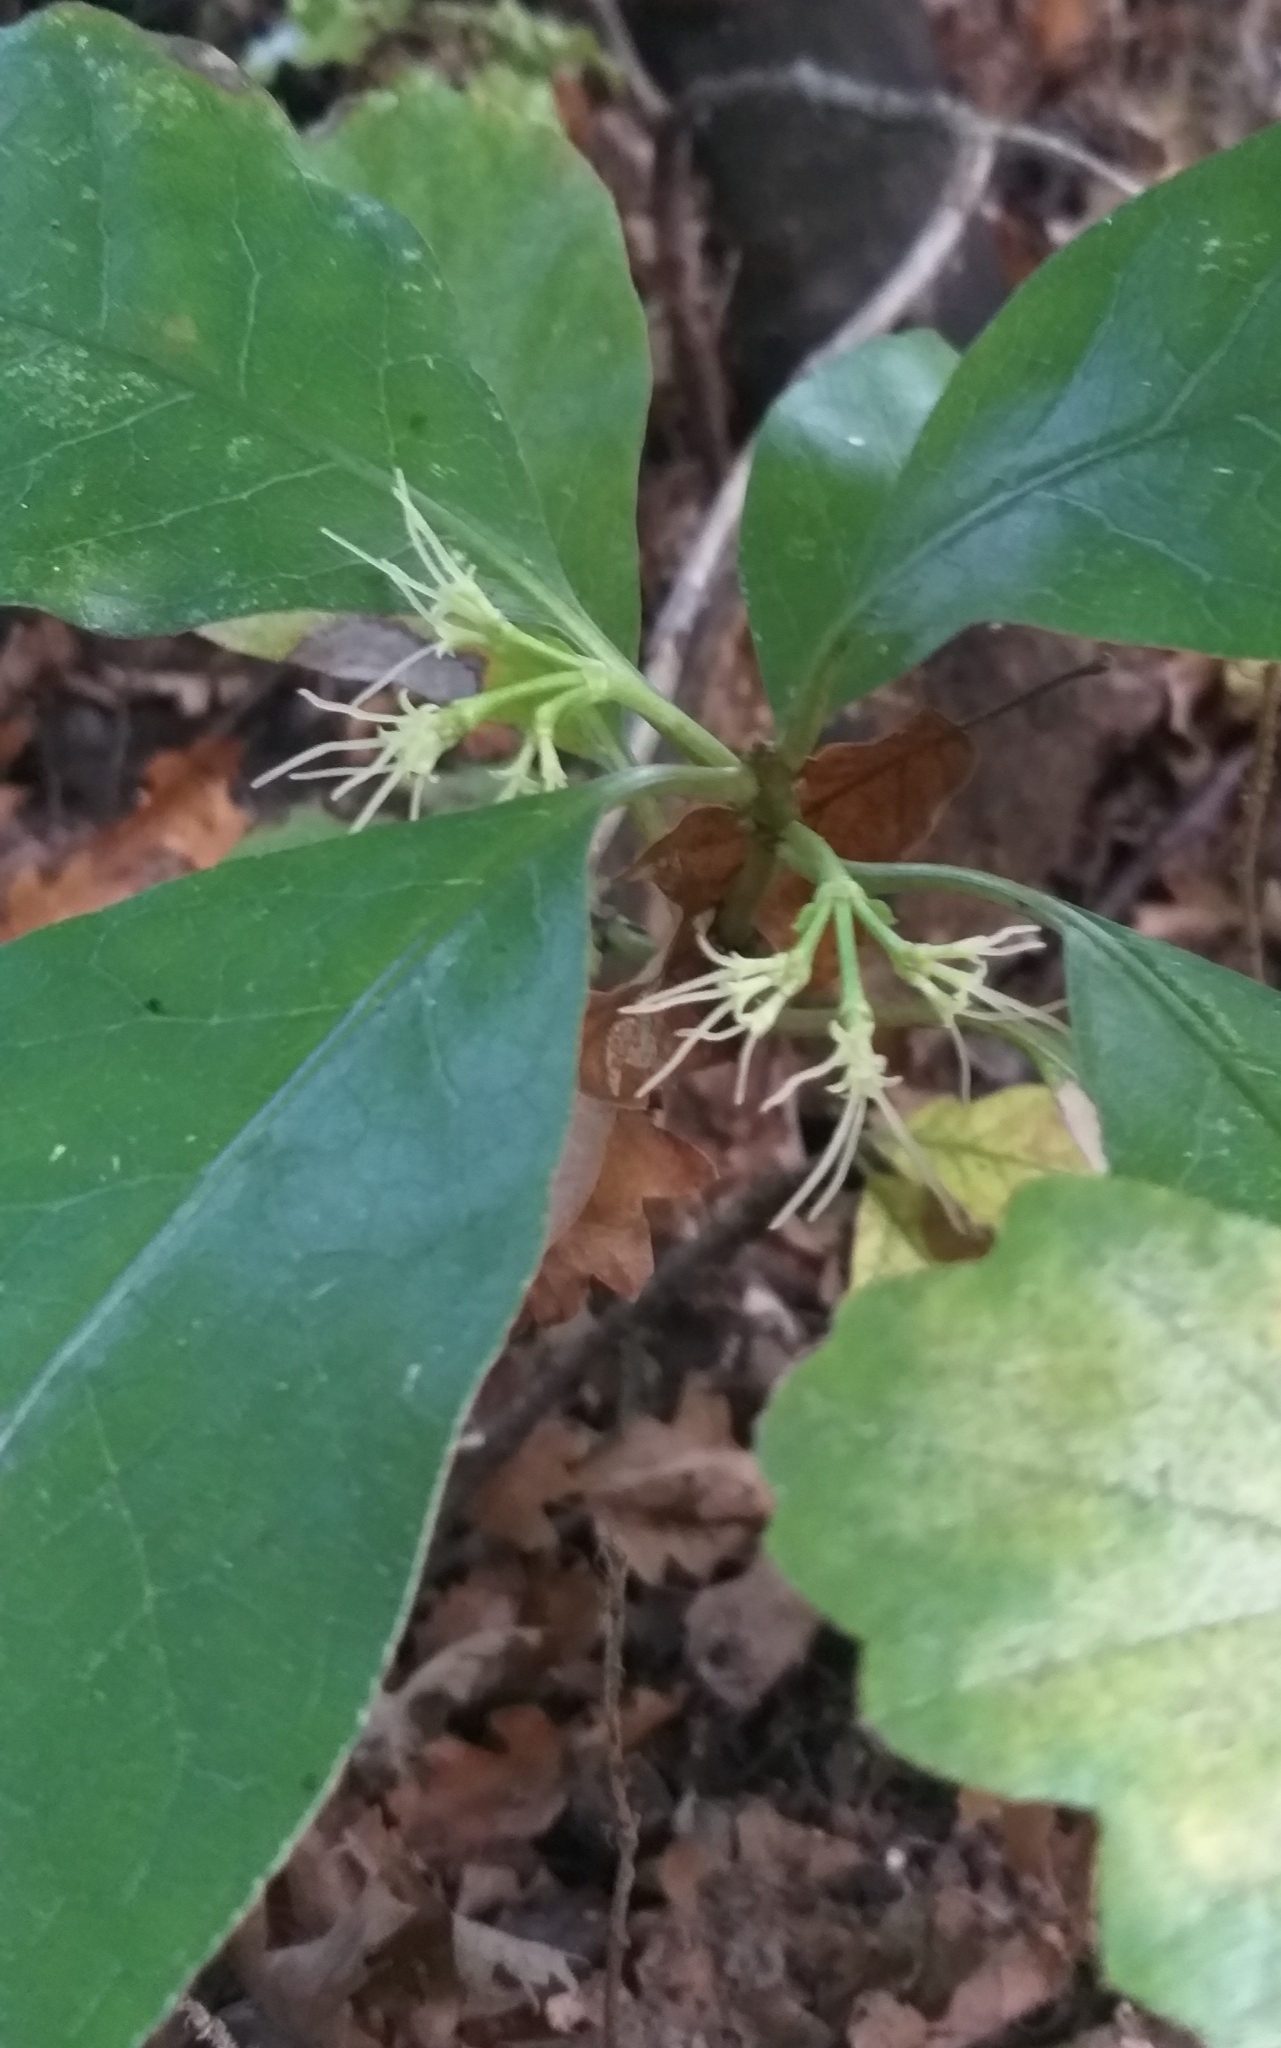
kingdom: Plantae
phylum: Tracheophyta
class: Magnoliopsida
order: Gentianales
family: Rubiaceae
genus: Coprosma
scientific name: Coprosma autumnalis
